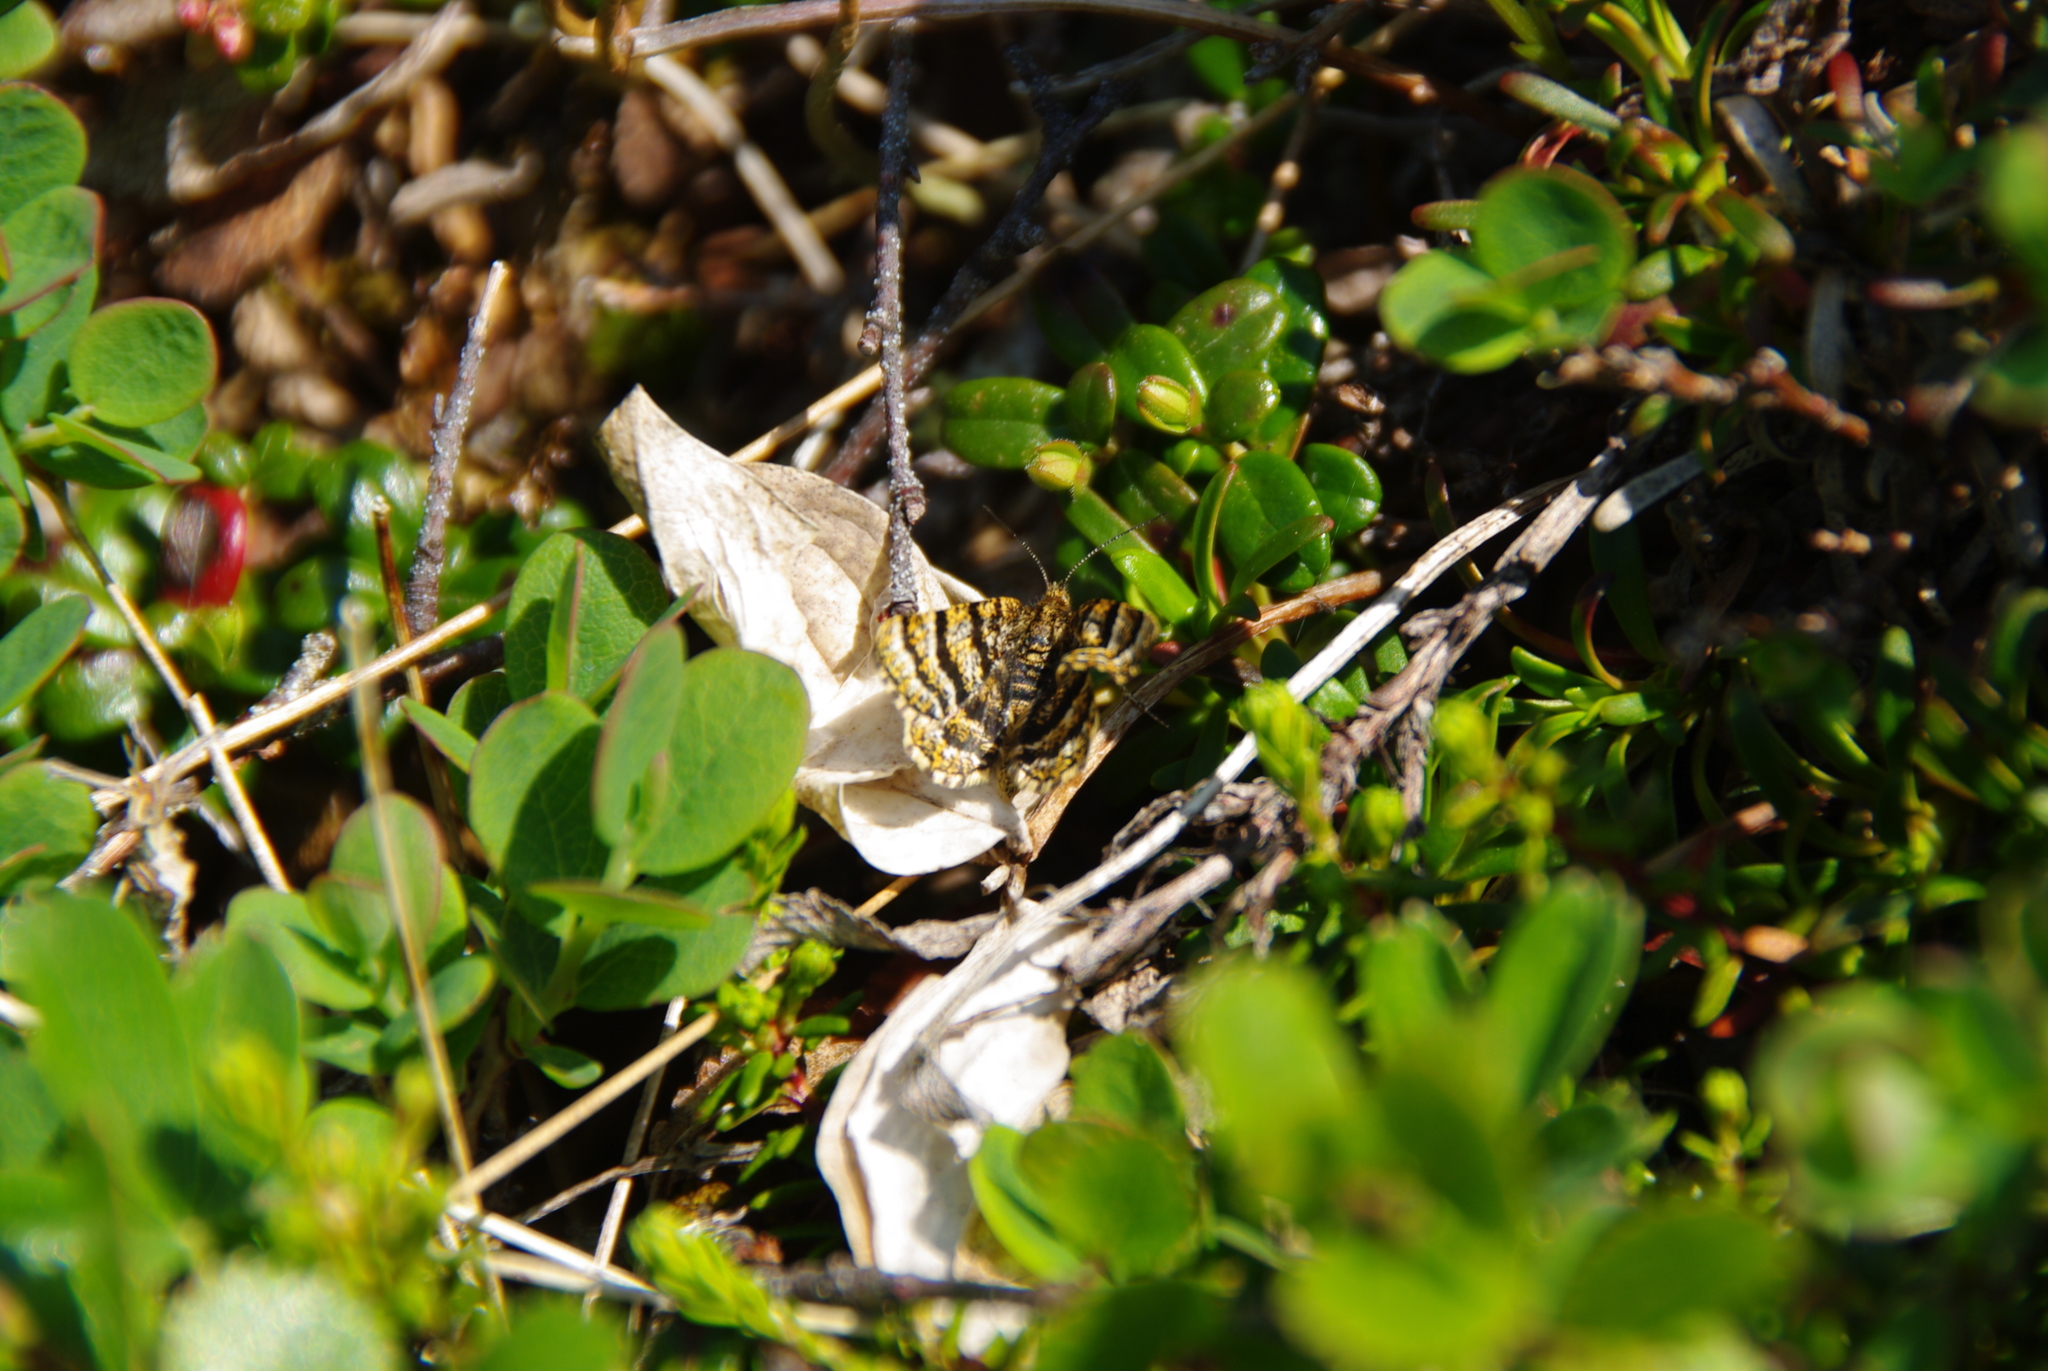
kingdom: Animalia
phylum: Arthropoda
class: Insecta
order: Lepidoptera
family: Geometridae
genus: Macaria
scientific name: Macaria truncataria
